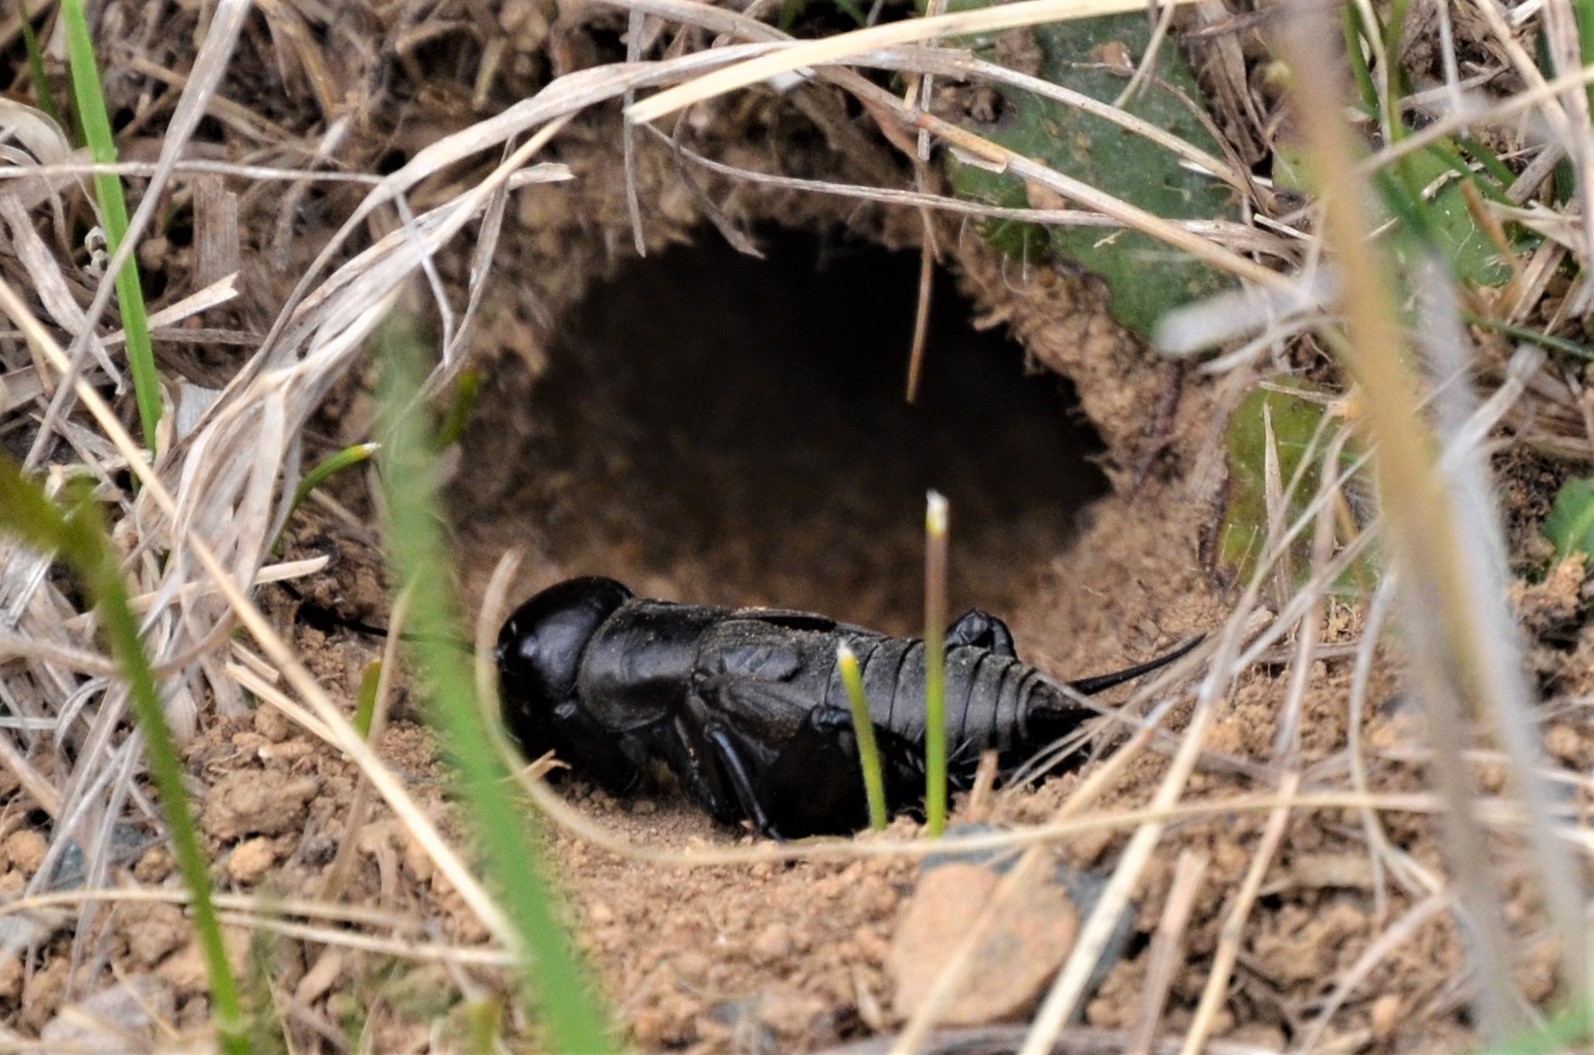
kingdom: Animalia
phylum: Arthropoda
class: Insecta
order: Orthoptera
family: Gryllidae
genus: Gryllus
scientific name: Gryllus campestris
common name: Field cricket
